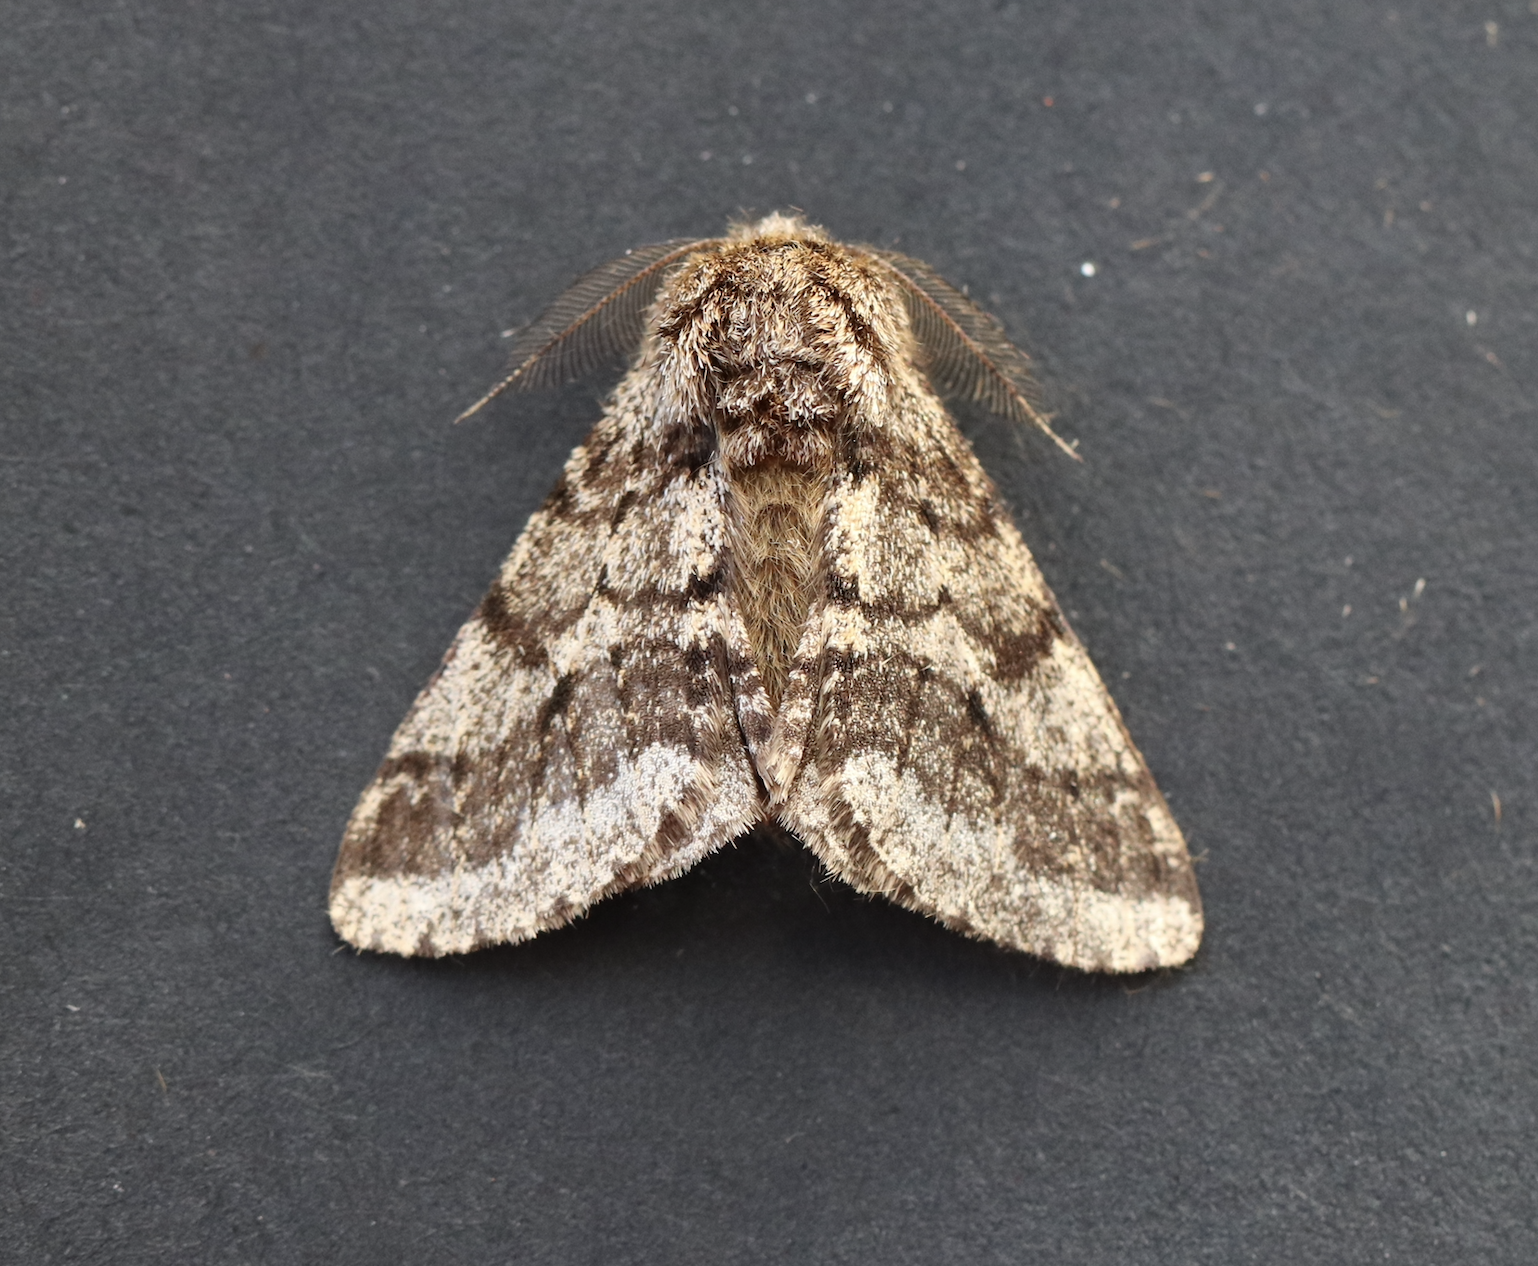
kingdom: Animalia
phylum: Arthropoda
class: Insecta
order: Lepidoptera
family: Geometridae
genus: Lycia
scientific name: Lycia hirtaria
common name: Brindled beauty
